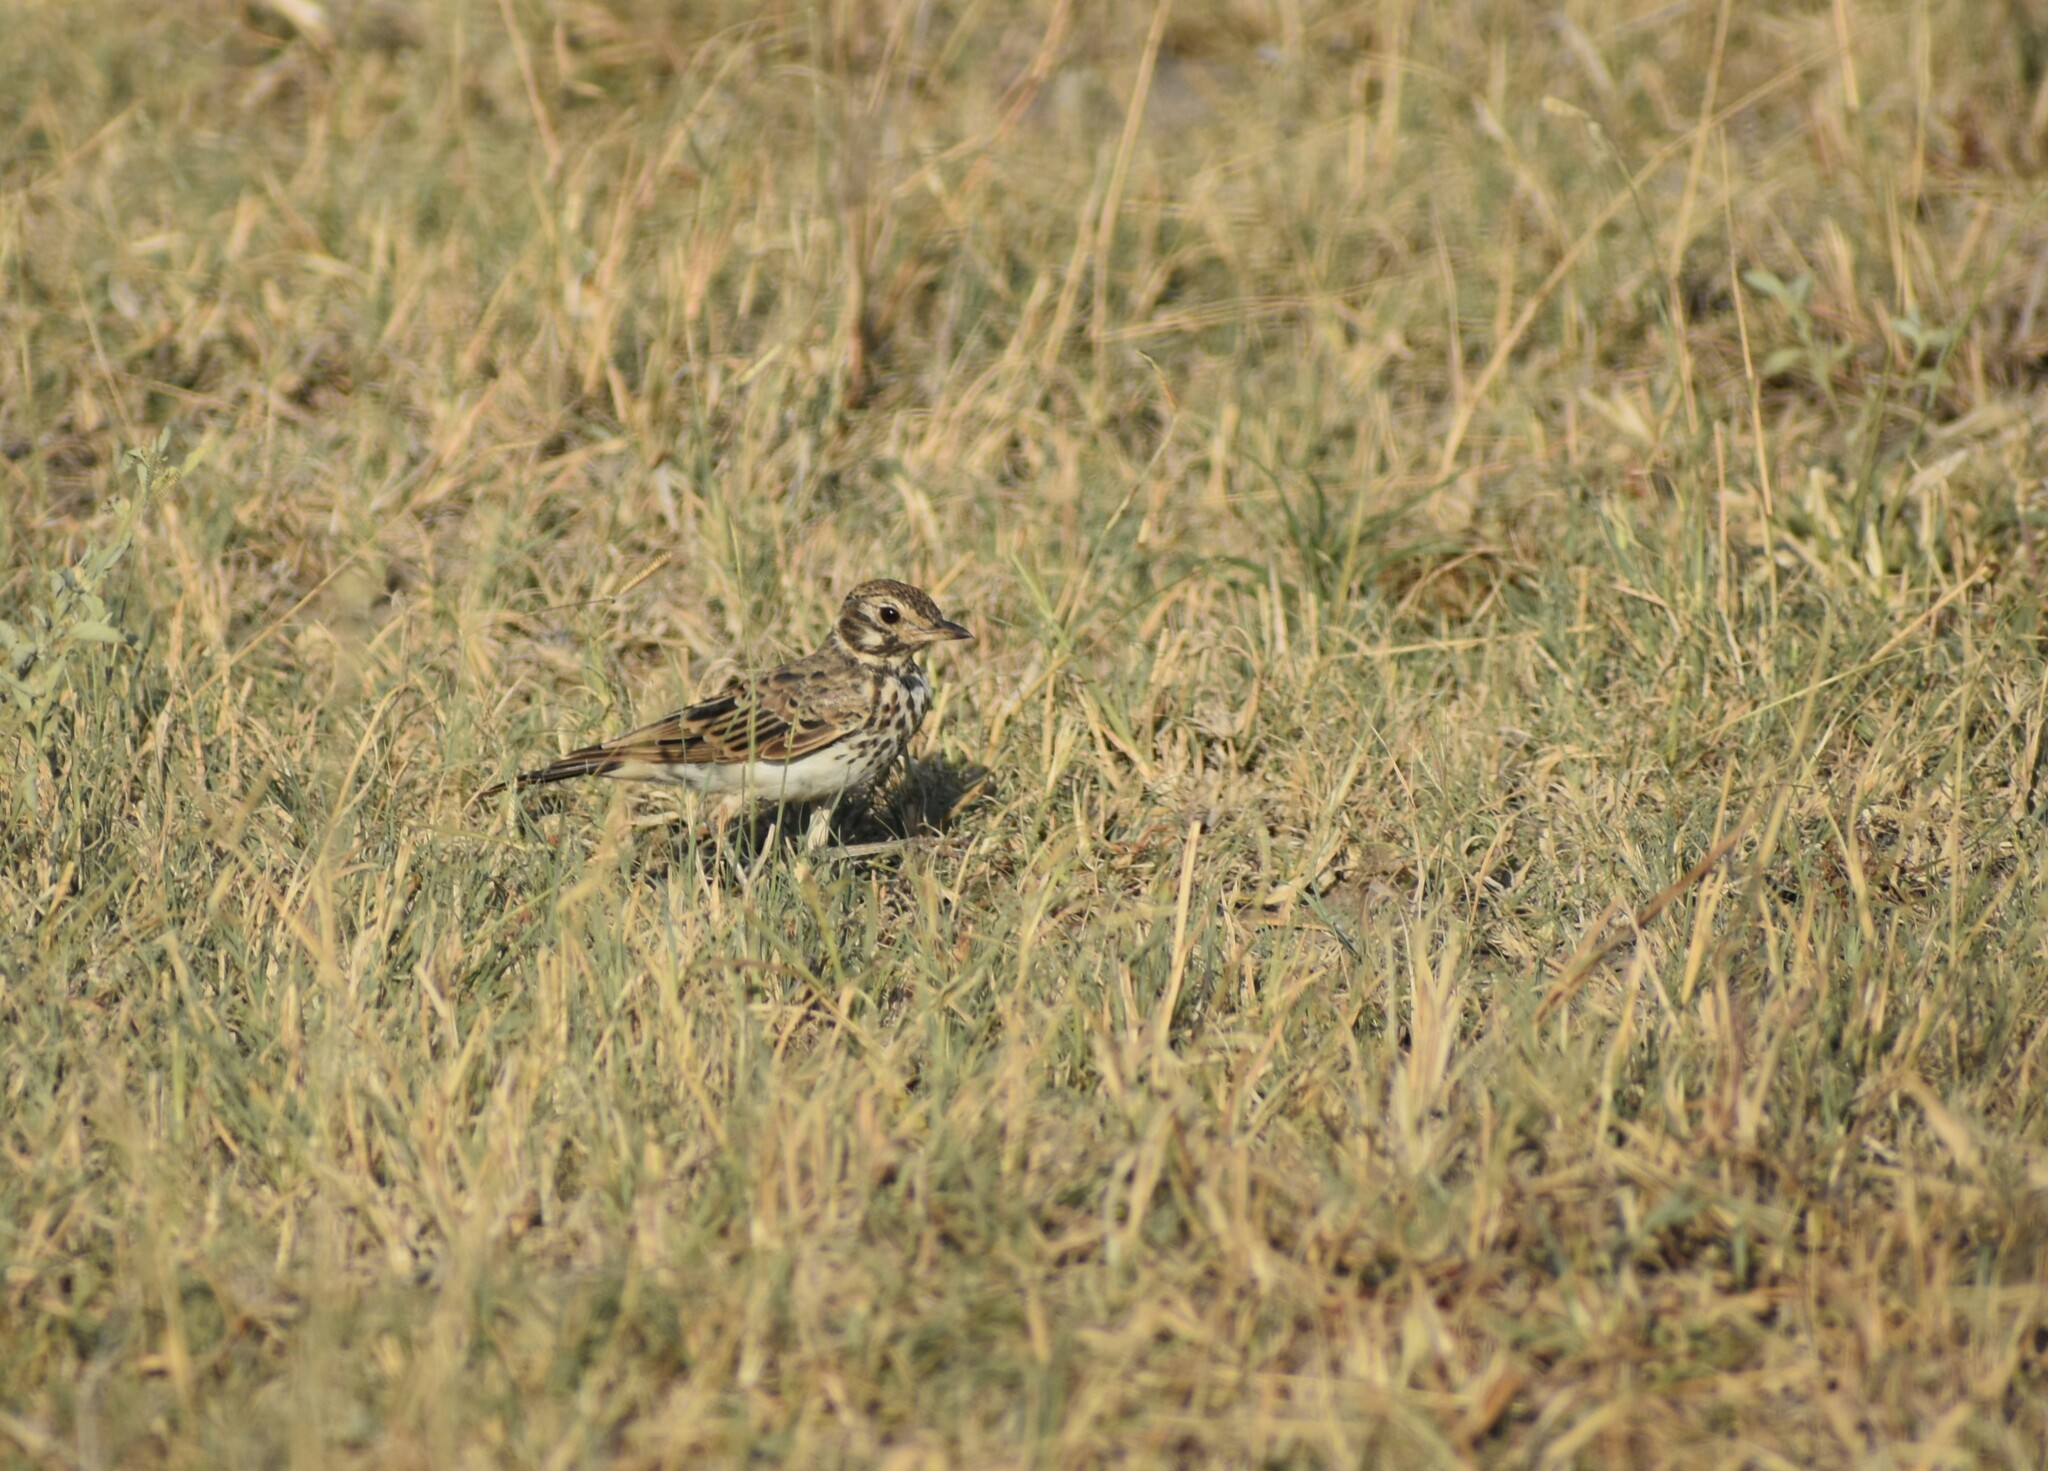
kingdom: Animalia
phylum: Chordata
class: Aves
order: Passeriformes
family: Alaudidae
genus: Pinarocorys
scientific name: Pinarocorys nigricans
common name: Dusky lark
